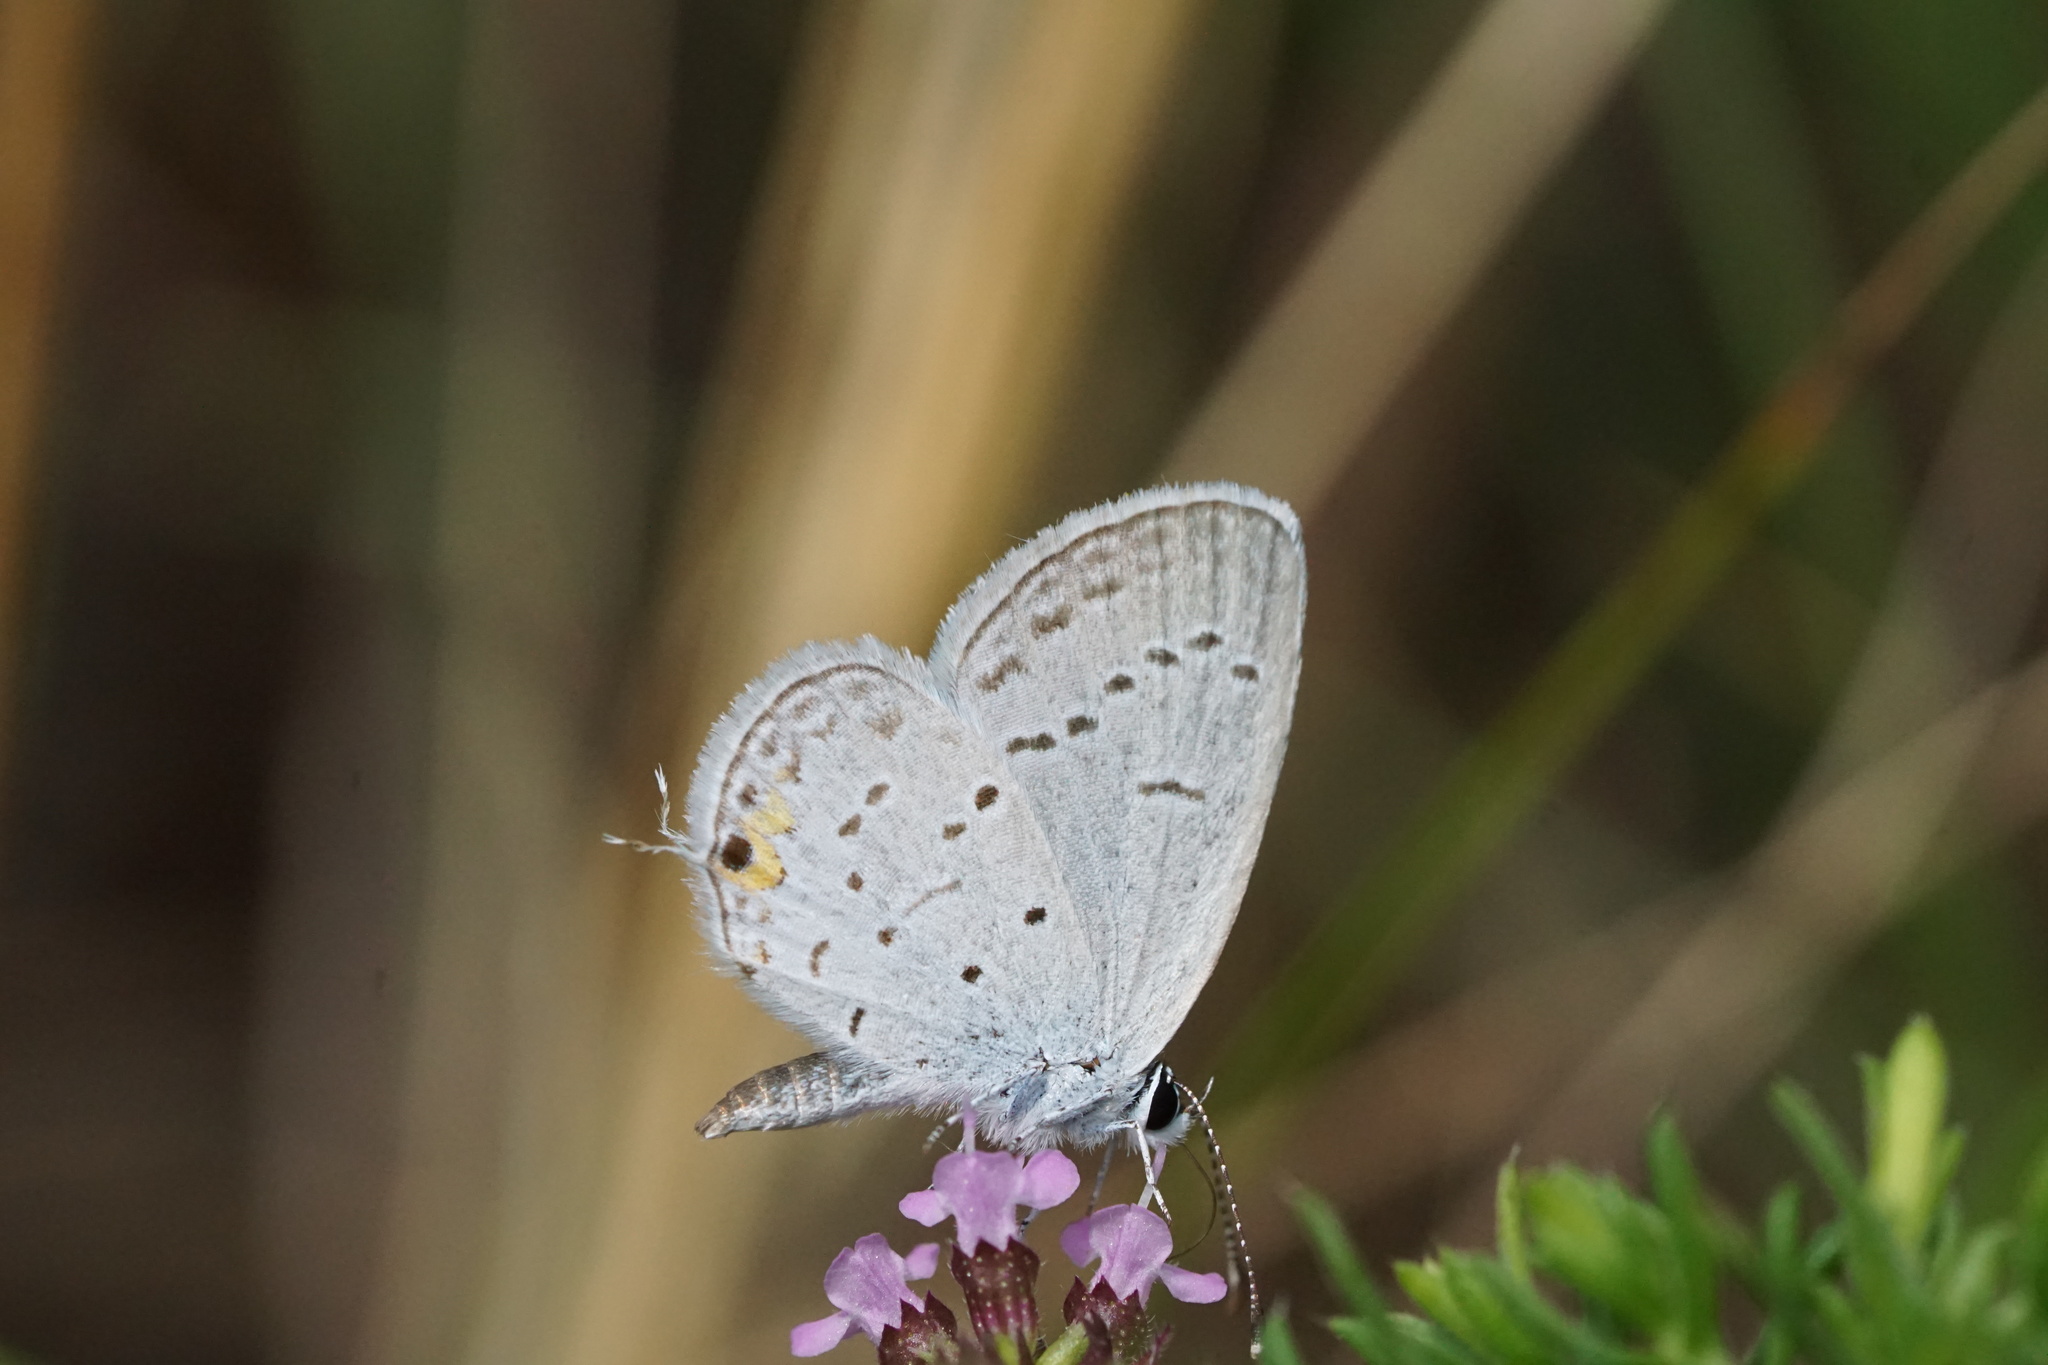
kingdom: Animalia
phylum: Arthropoda
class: Insecta
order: Lepidoptera
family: Lycaenidae
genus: Elkalyce
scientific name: Elkalyce comyntas
